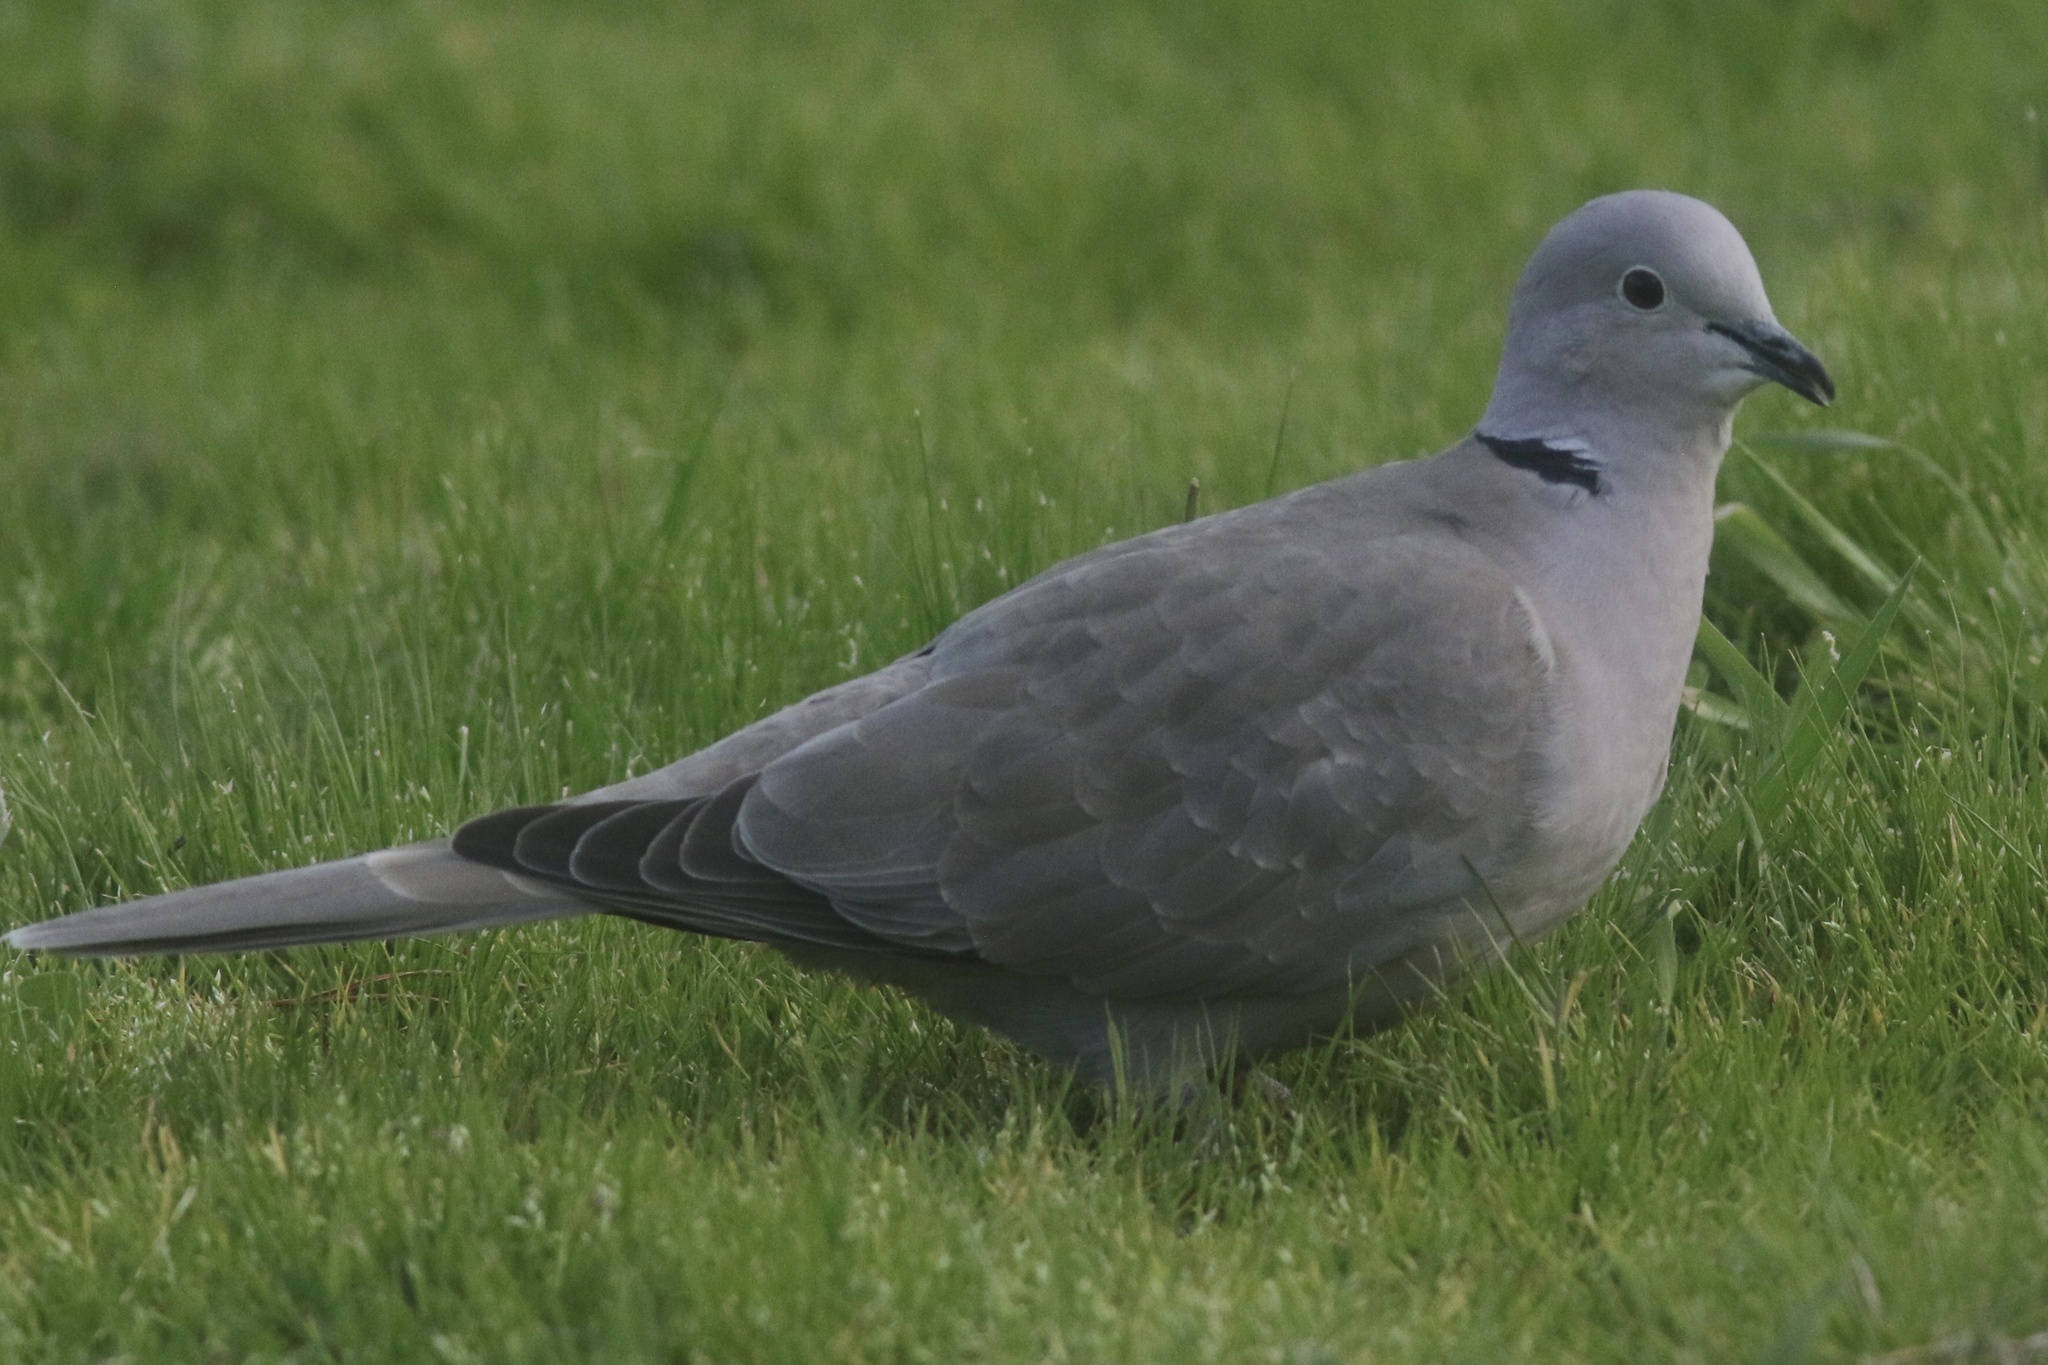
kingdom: Animalia
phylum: Chordata
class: Aves
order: Columbiformes
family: Columbidae
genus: Streptopelia
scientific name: Streptopelia decaocto
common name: Eurasian collared dove
